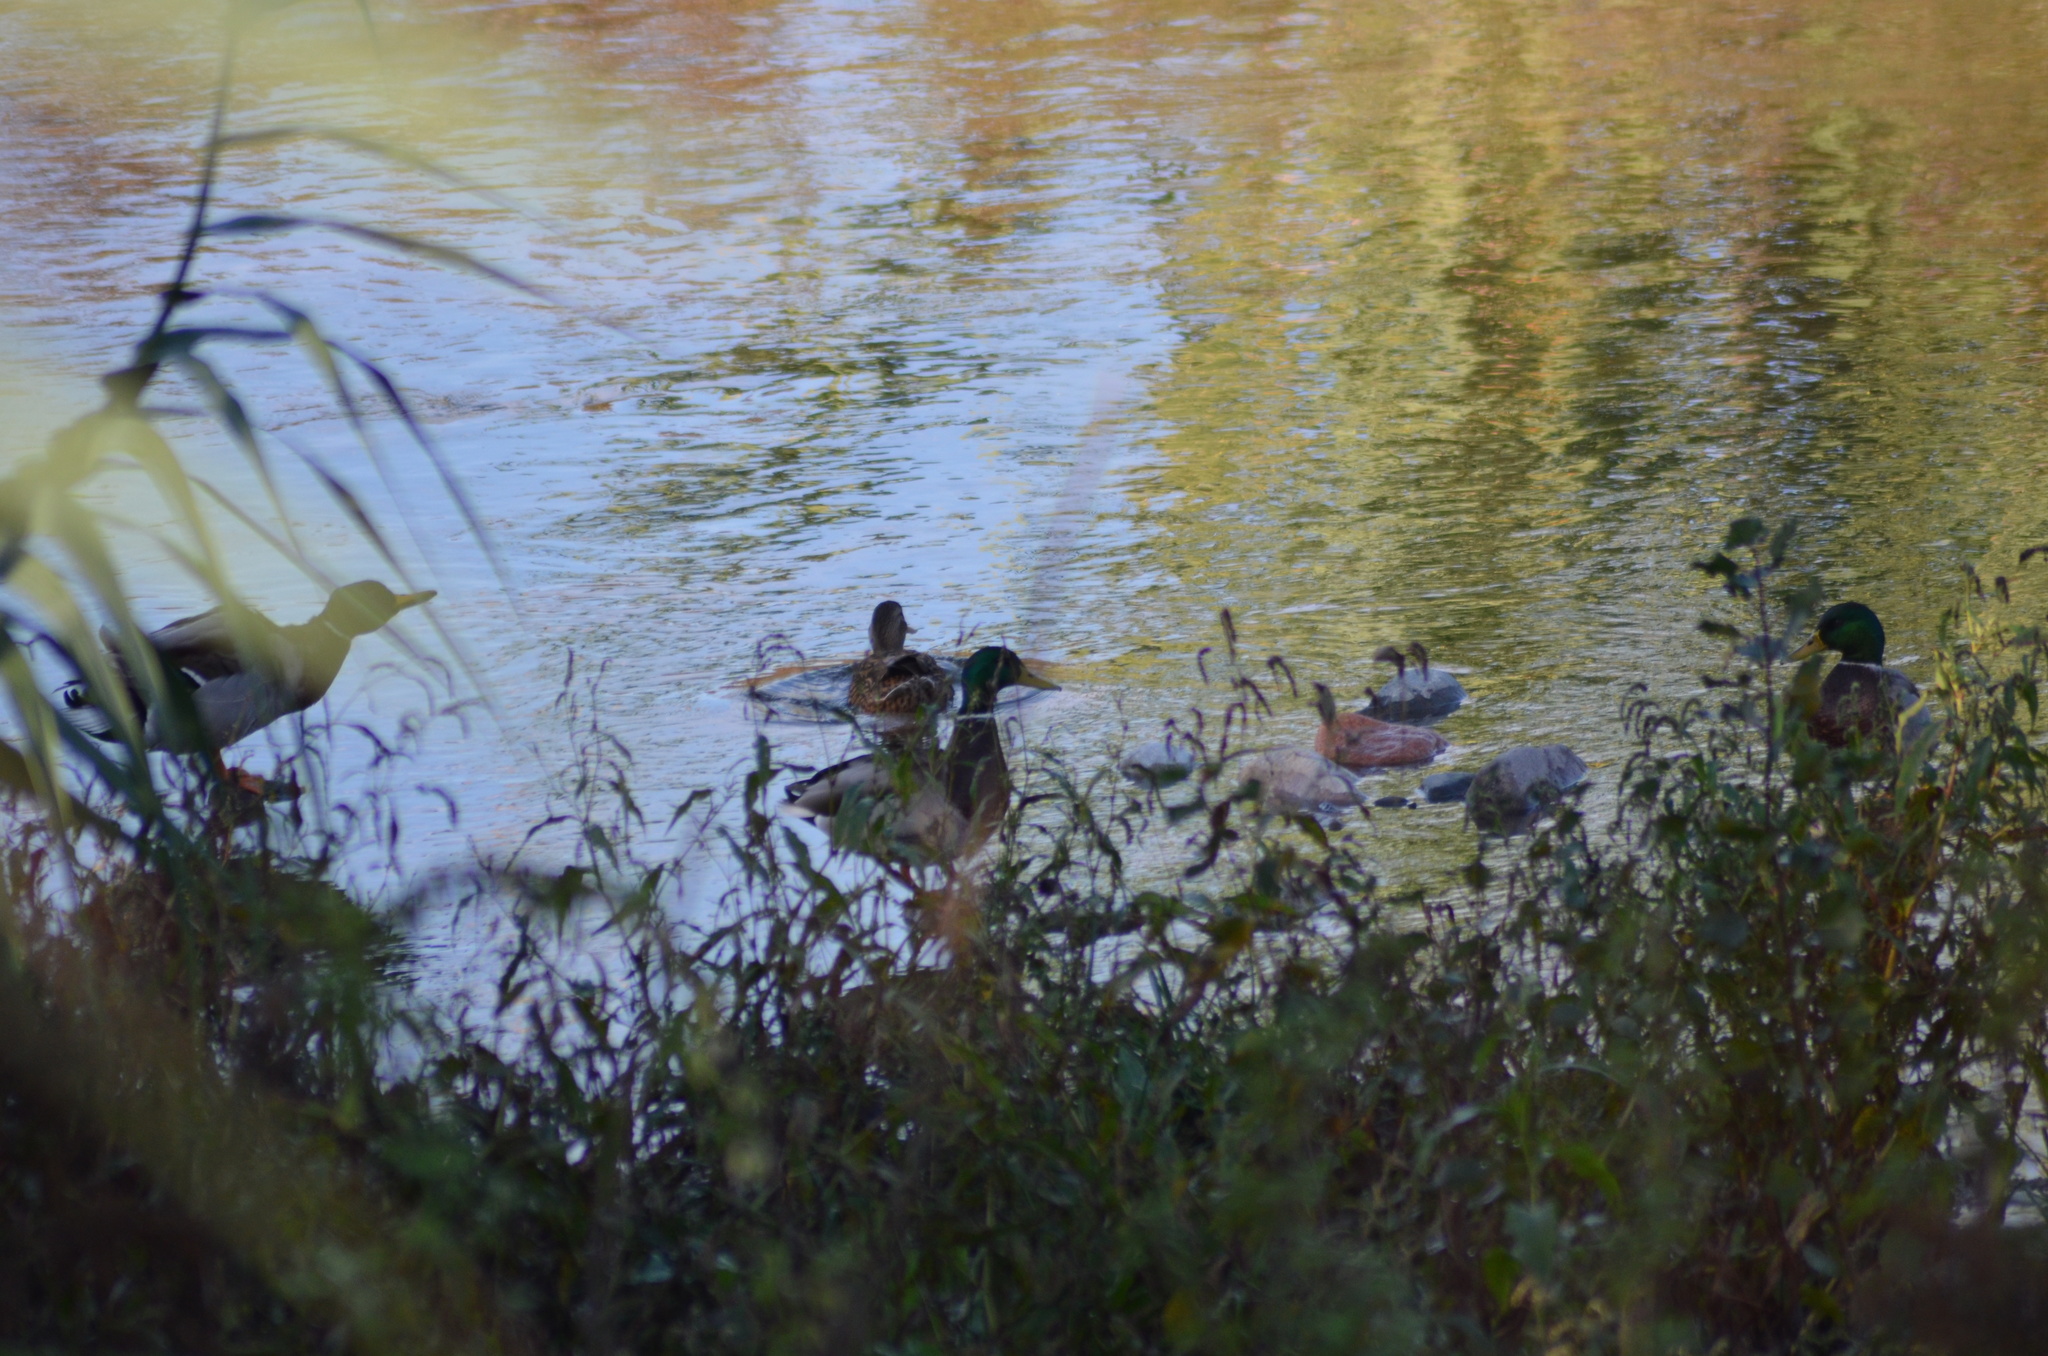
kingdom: Animalia
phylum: Chordata
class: Aves
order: Anseriformes
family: Anatidae
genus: Anas
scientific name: Anas platyrhynchos
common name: Mallard
